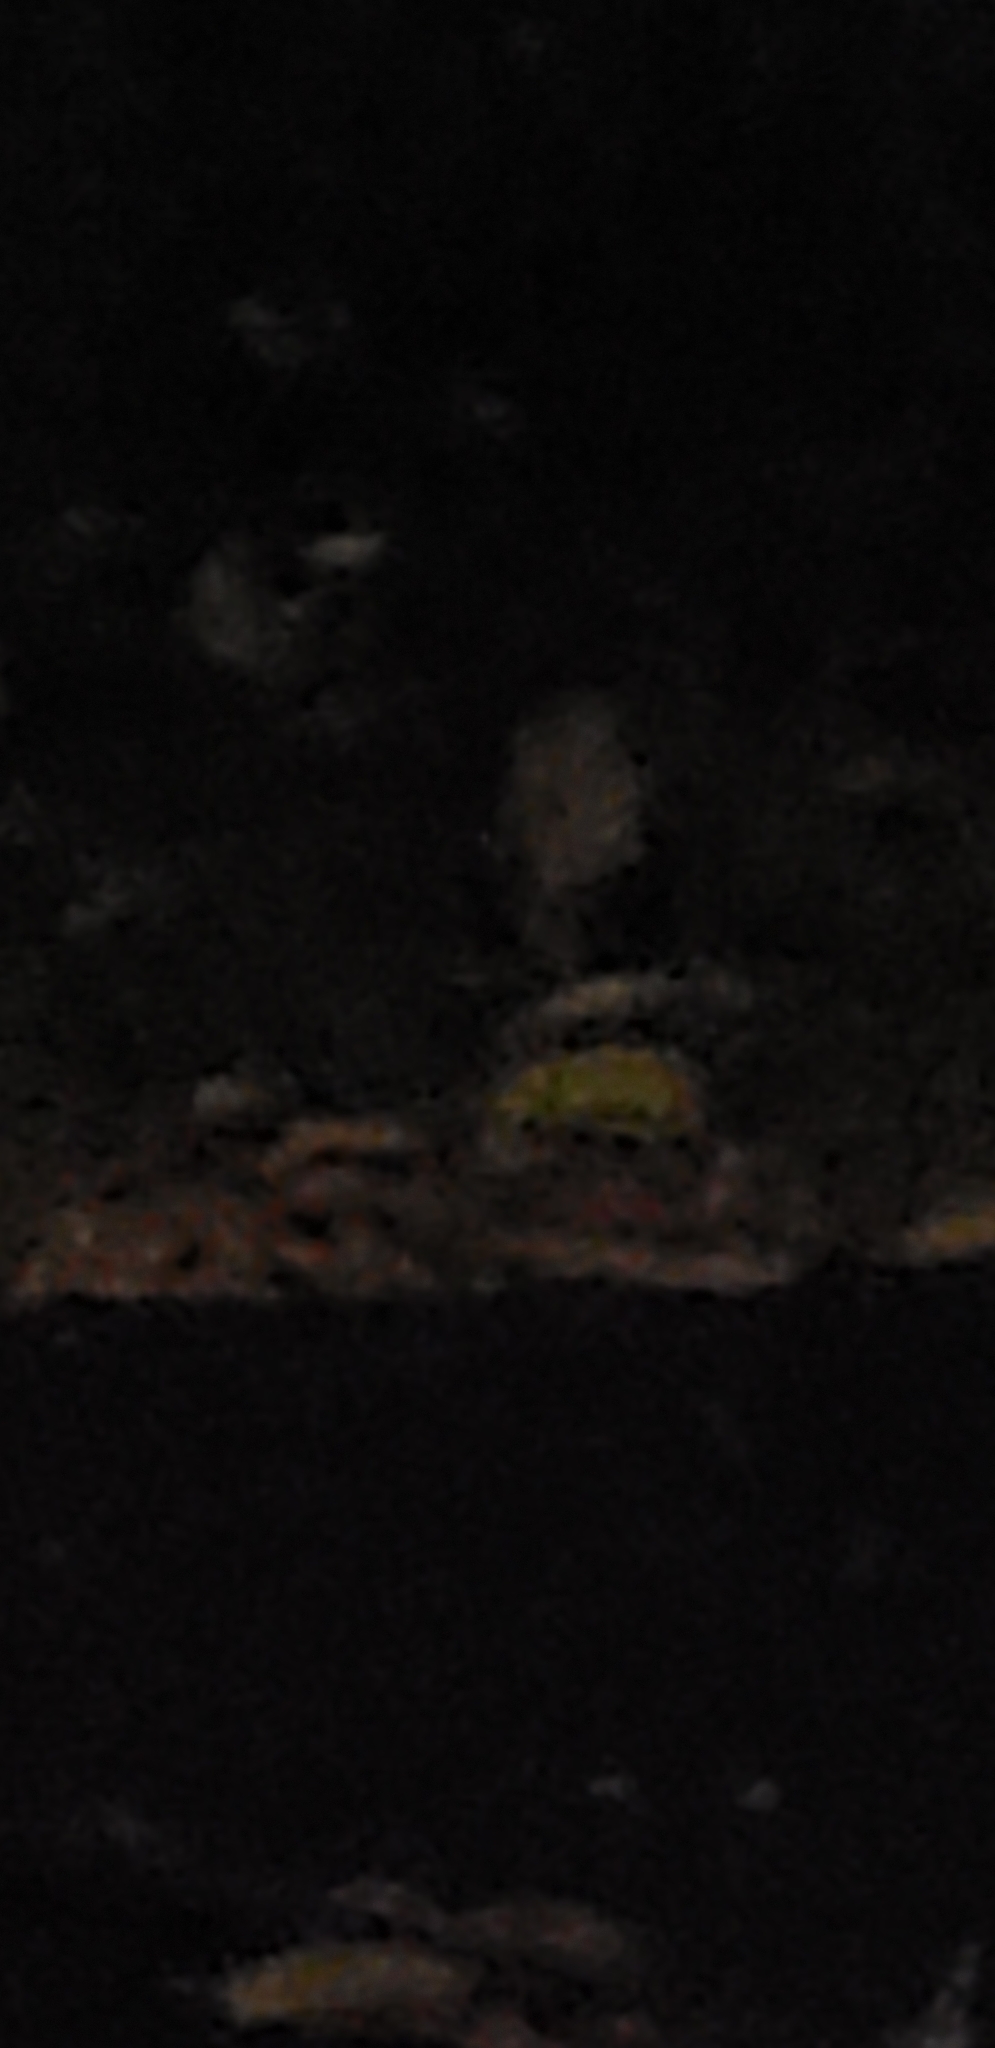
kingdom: Animalia
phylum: Chordata
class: Mammalia
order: Didelphimorphia
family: Didelphidae
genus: Didelphis
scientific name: Didelphis virginiana
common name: Virginia opossum
